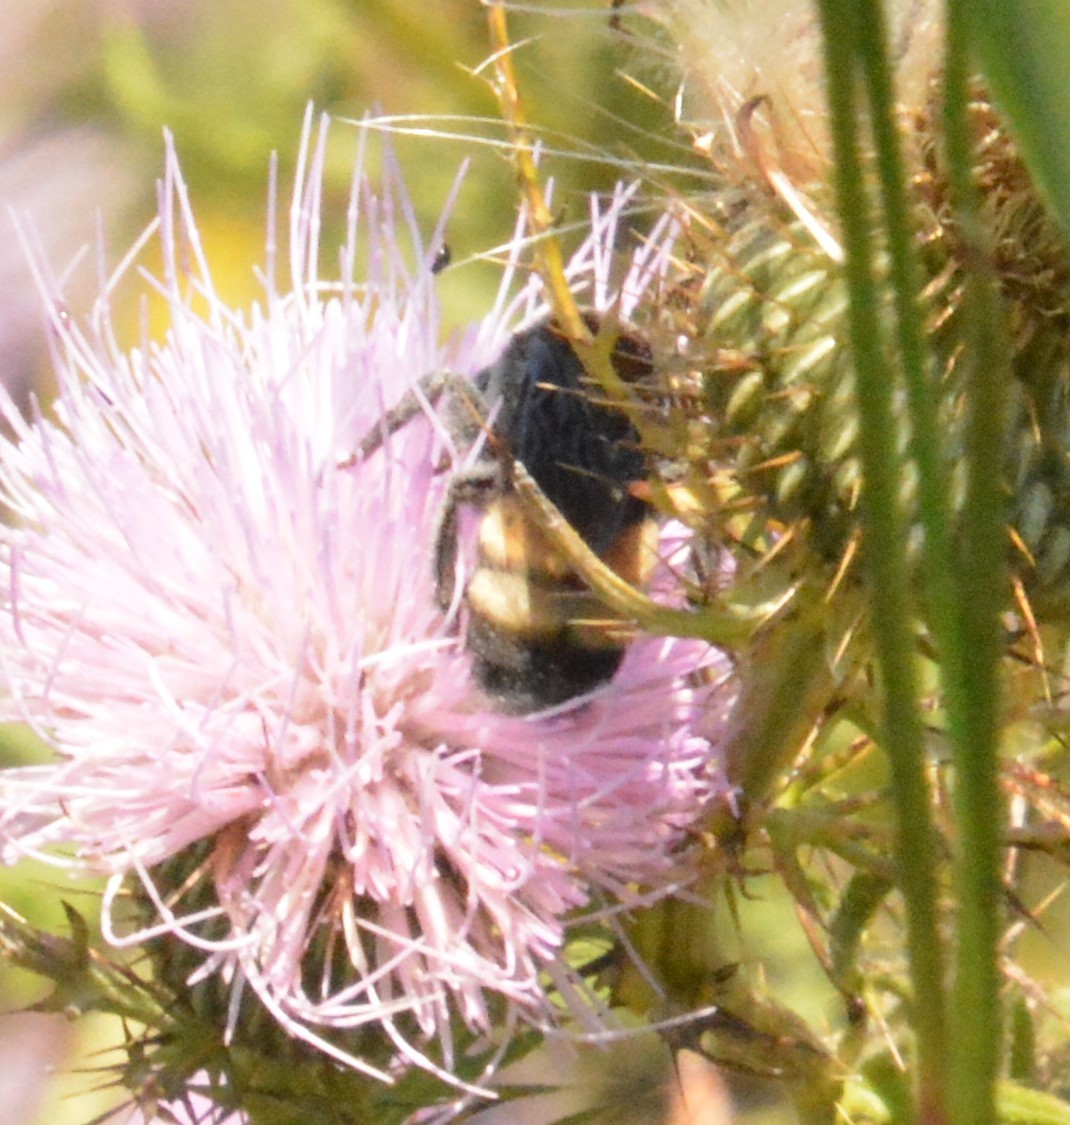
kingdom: Animalia
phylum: Arthropoda
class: Insecta
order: Hymenoptera
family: Apidae
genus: Bombus
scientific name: Bombus auricomus
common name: Black and gold bumble bee
